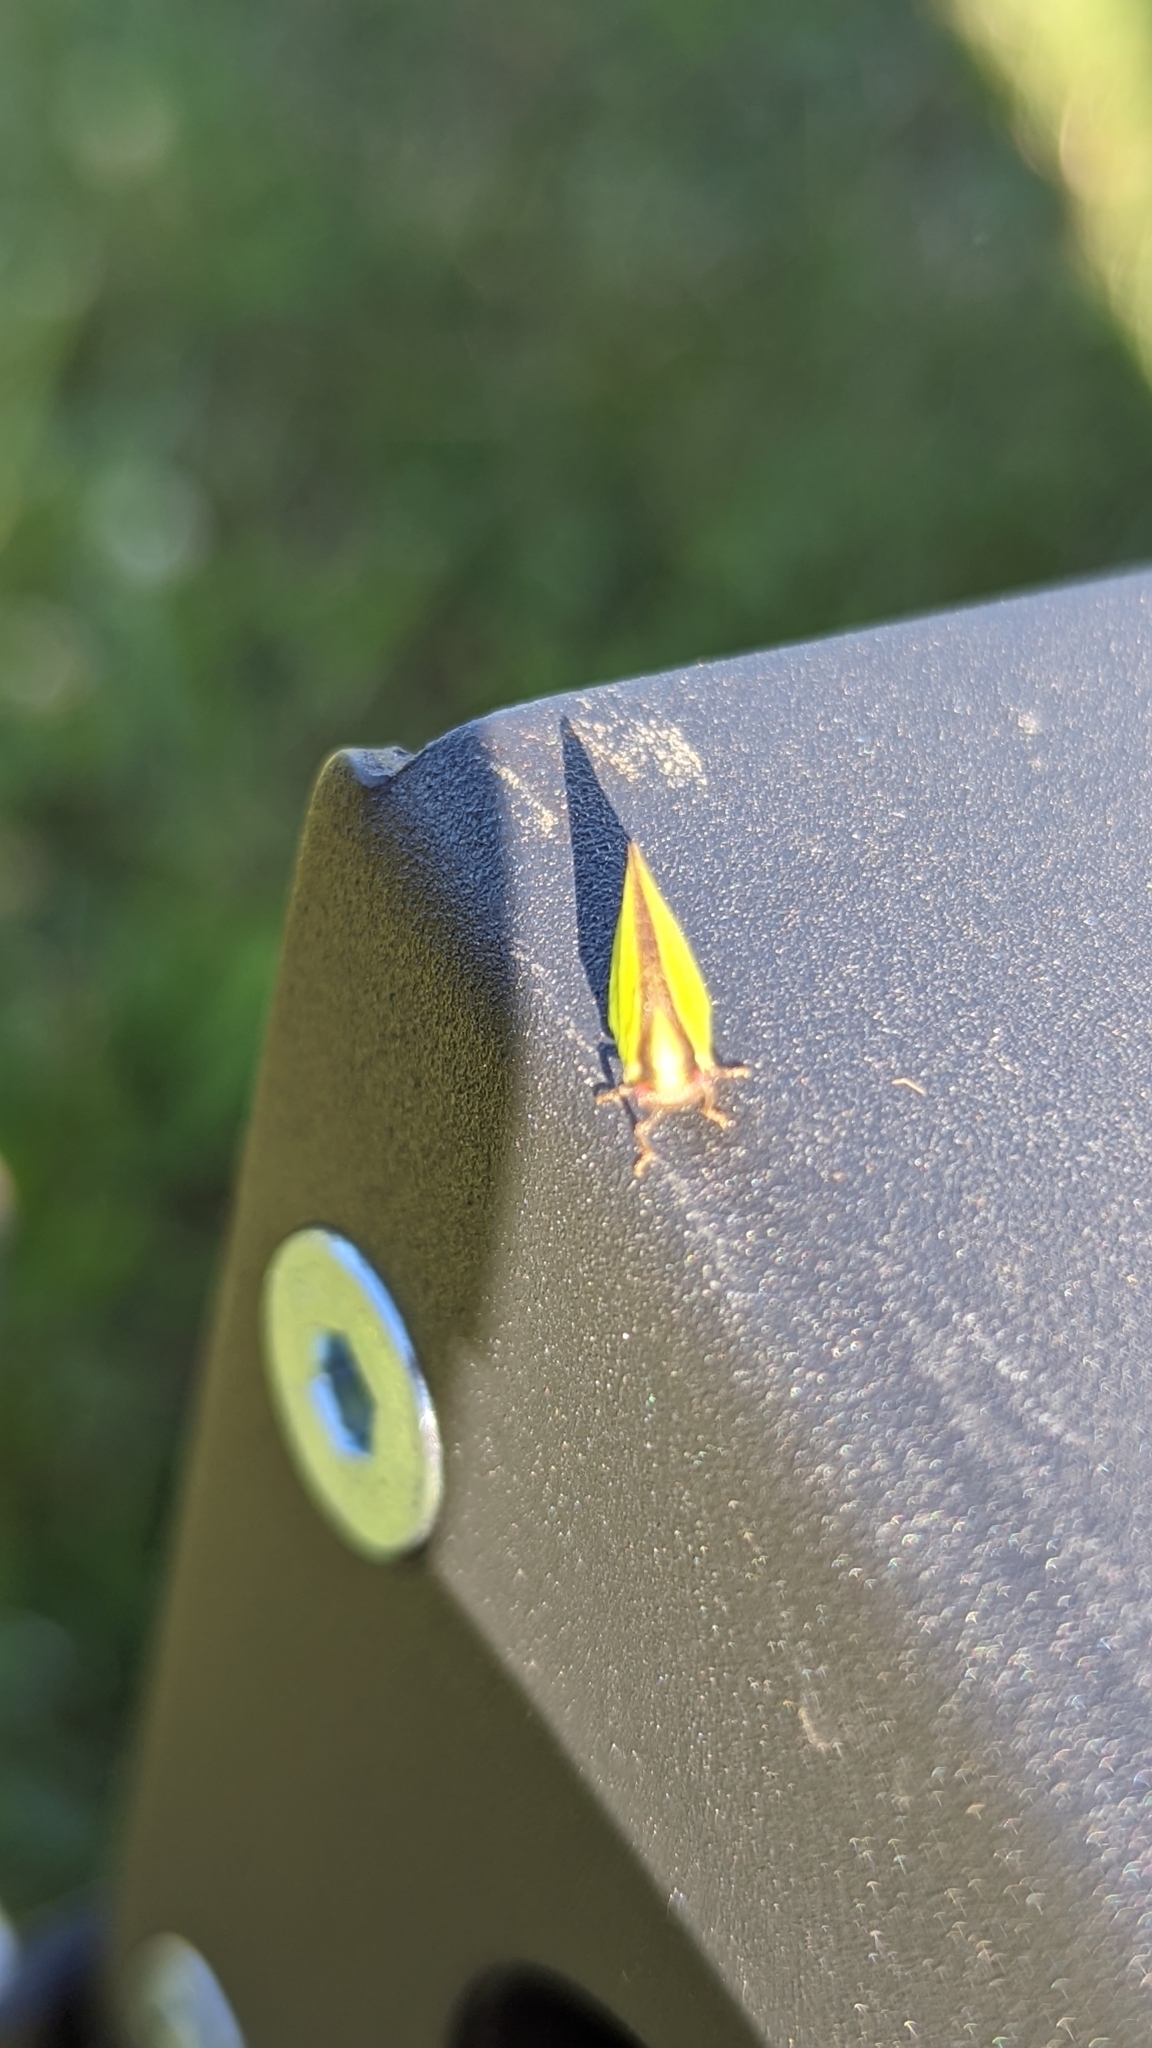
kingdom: Animalia
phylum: Arthropoda
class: Insecta
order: Hemiptera
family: Acanaloniidae
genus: Acanalonia
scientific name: Acanalonia bivittata
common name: Two-striped planthopper
